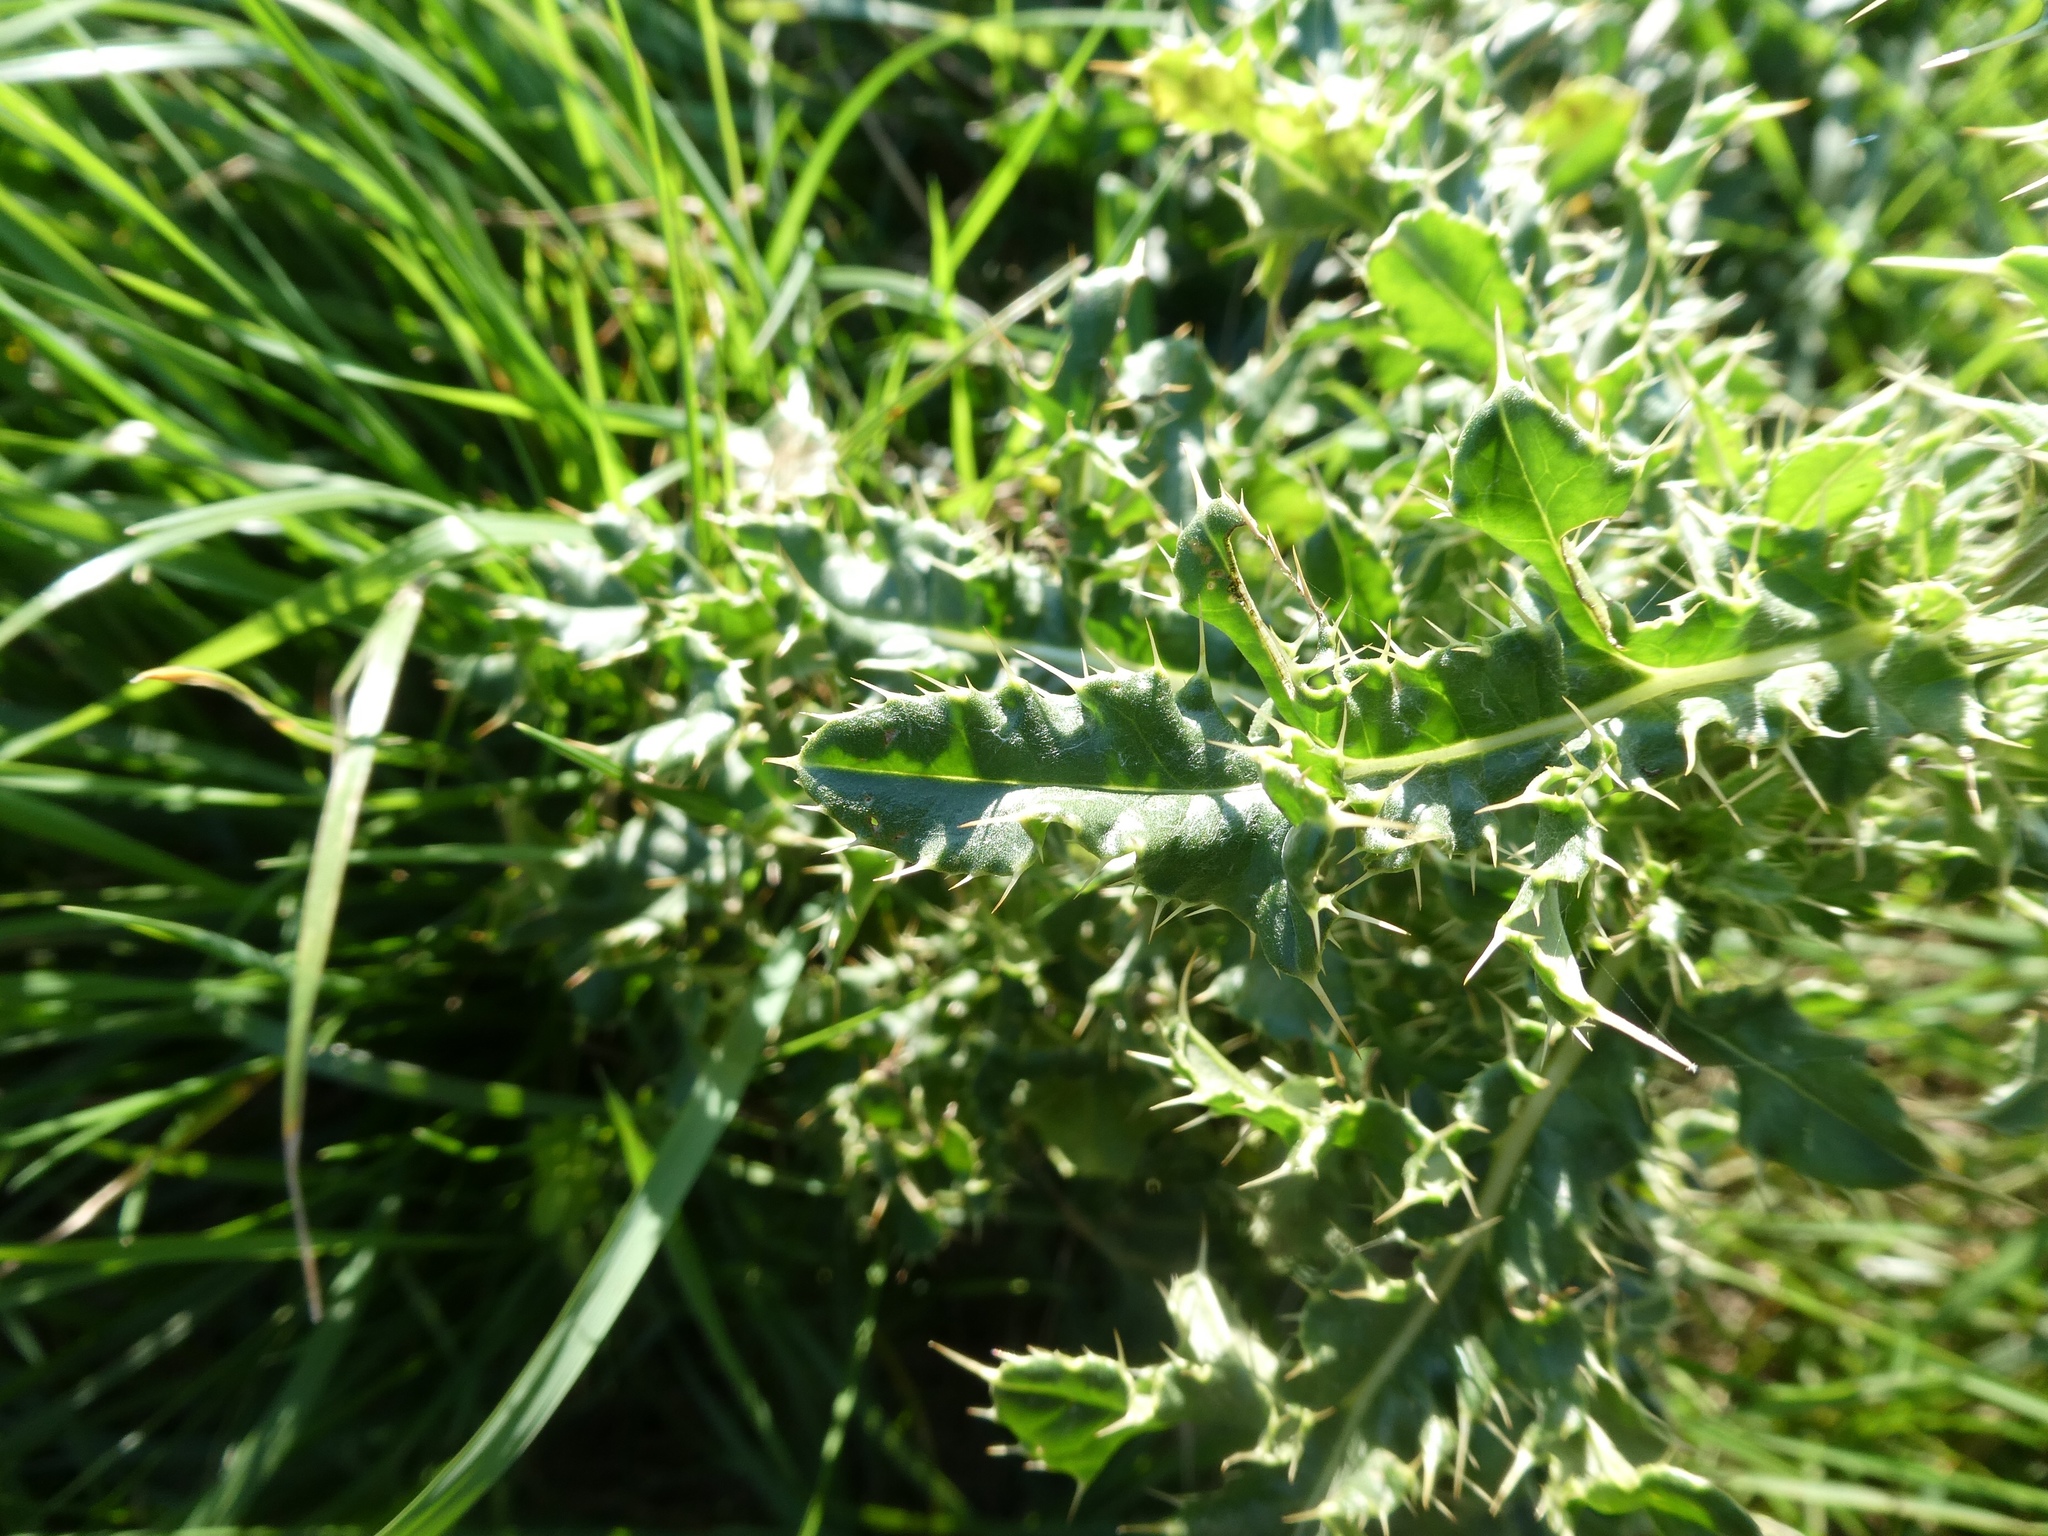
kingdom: Plantae
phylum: Tracheophyta
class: Magnoliopsida
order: Asterales
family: Asteraceae
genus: Cirsium
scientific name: Cirsium arvense
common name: Creeping thistle
